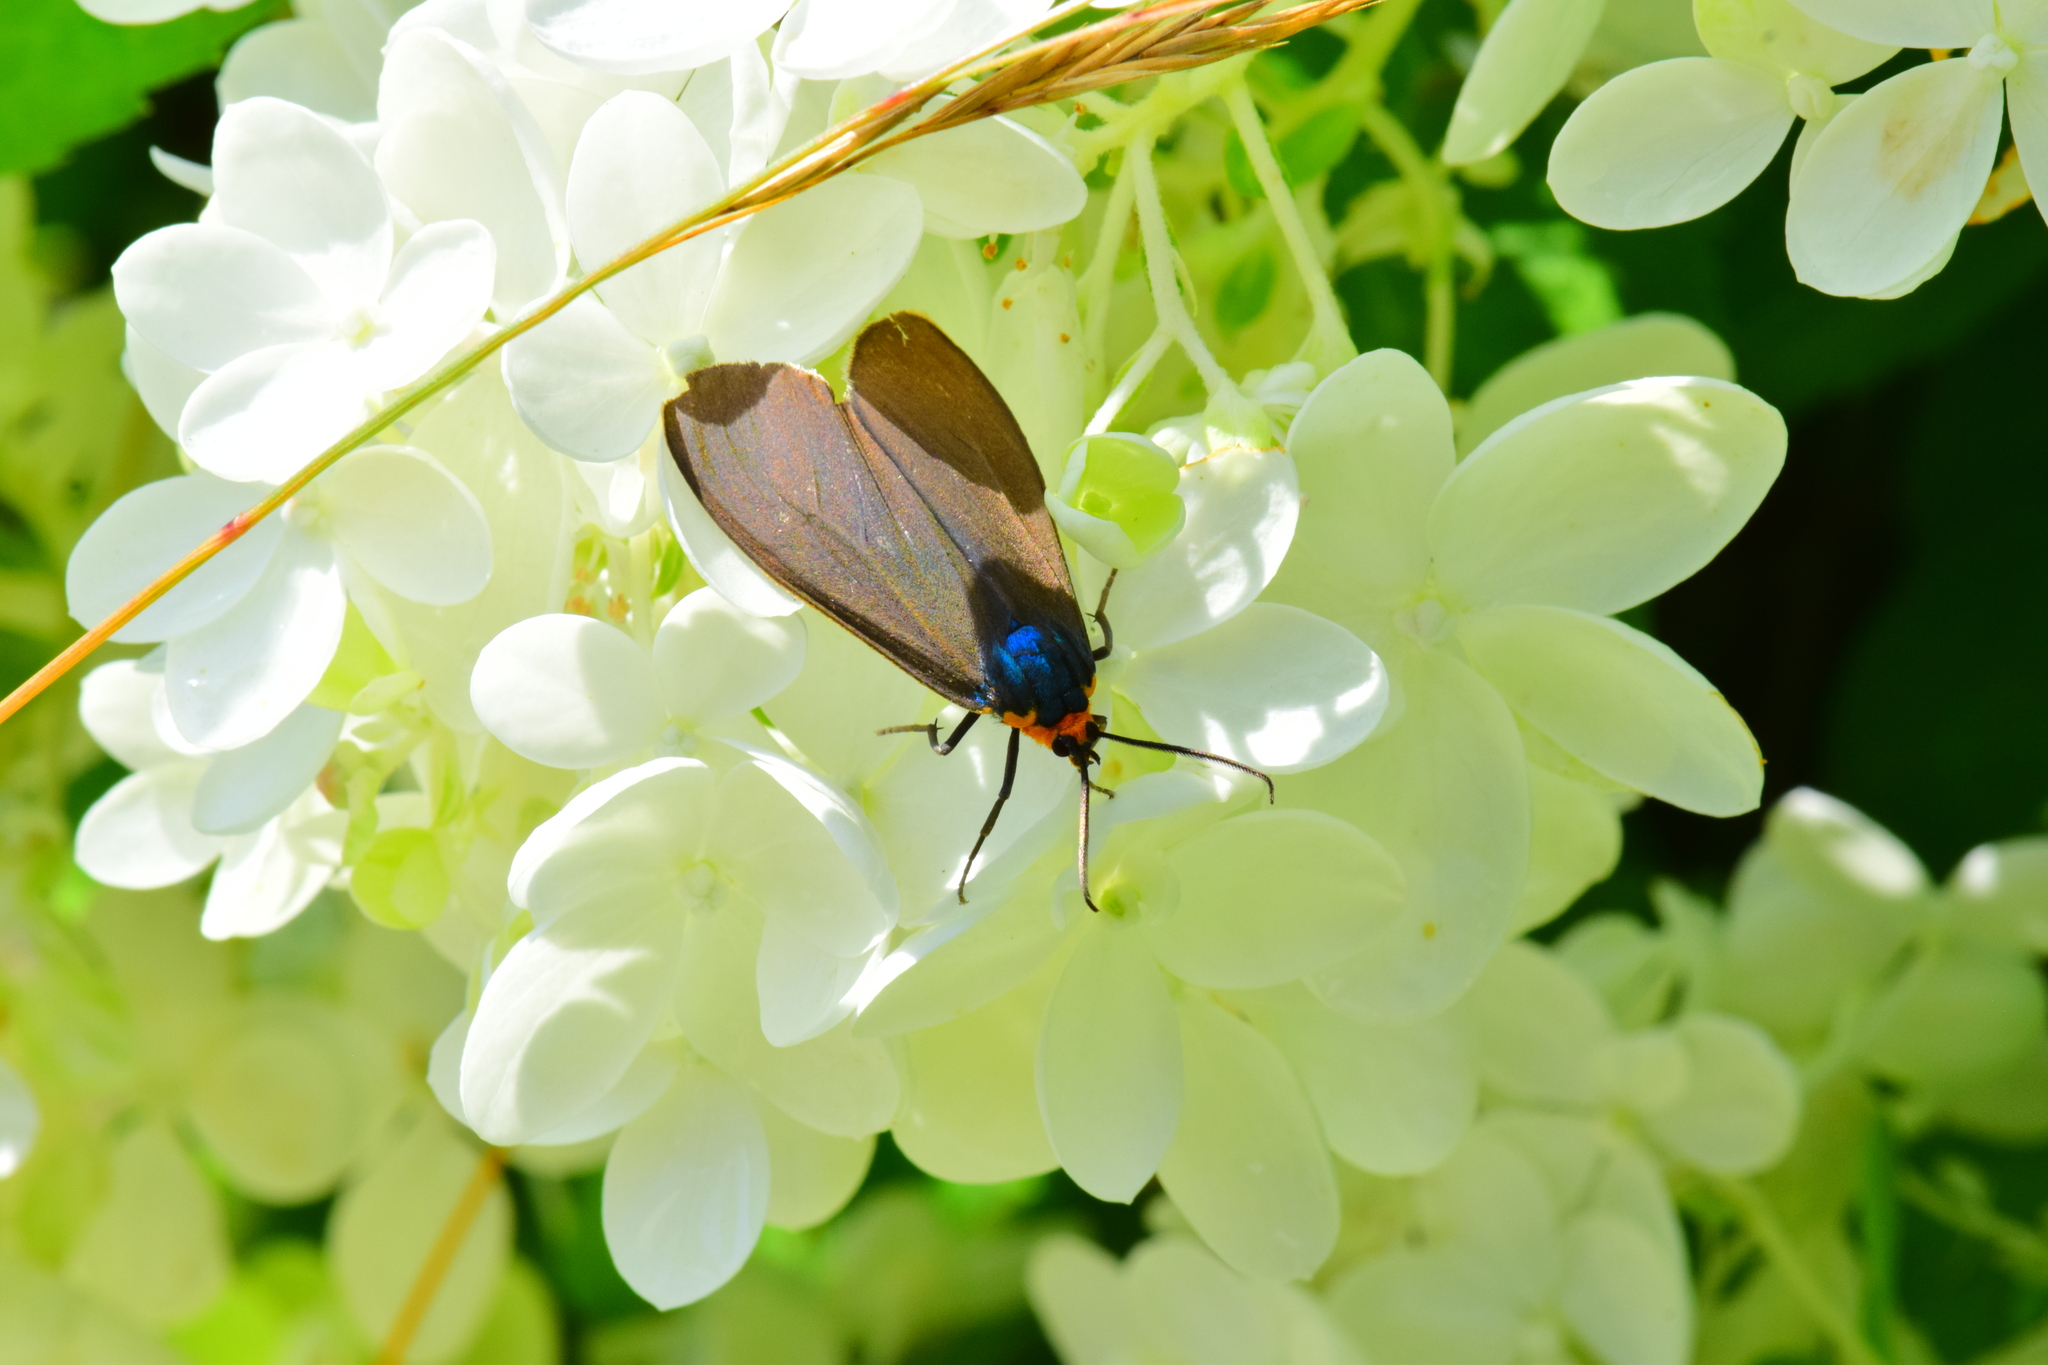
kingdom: Animalia
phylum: Arthropoda
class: Insecta
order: Lepidoptera
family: Erebidae
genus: Ctenucha
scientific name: Ctenucha virginica
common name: Virginia ctenucha moth
